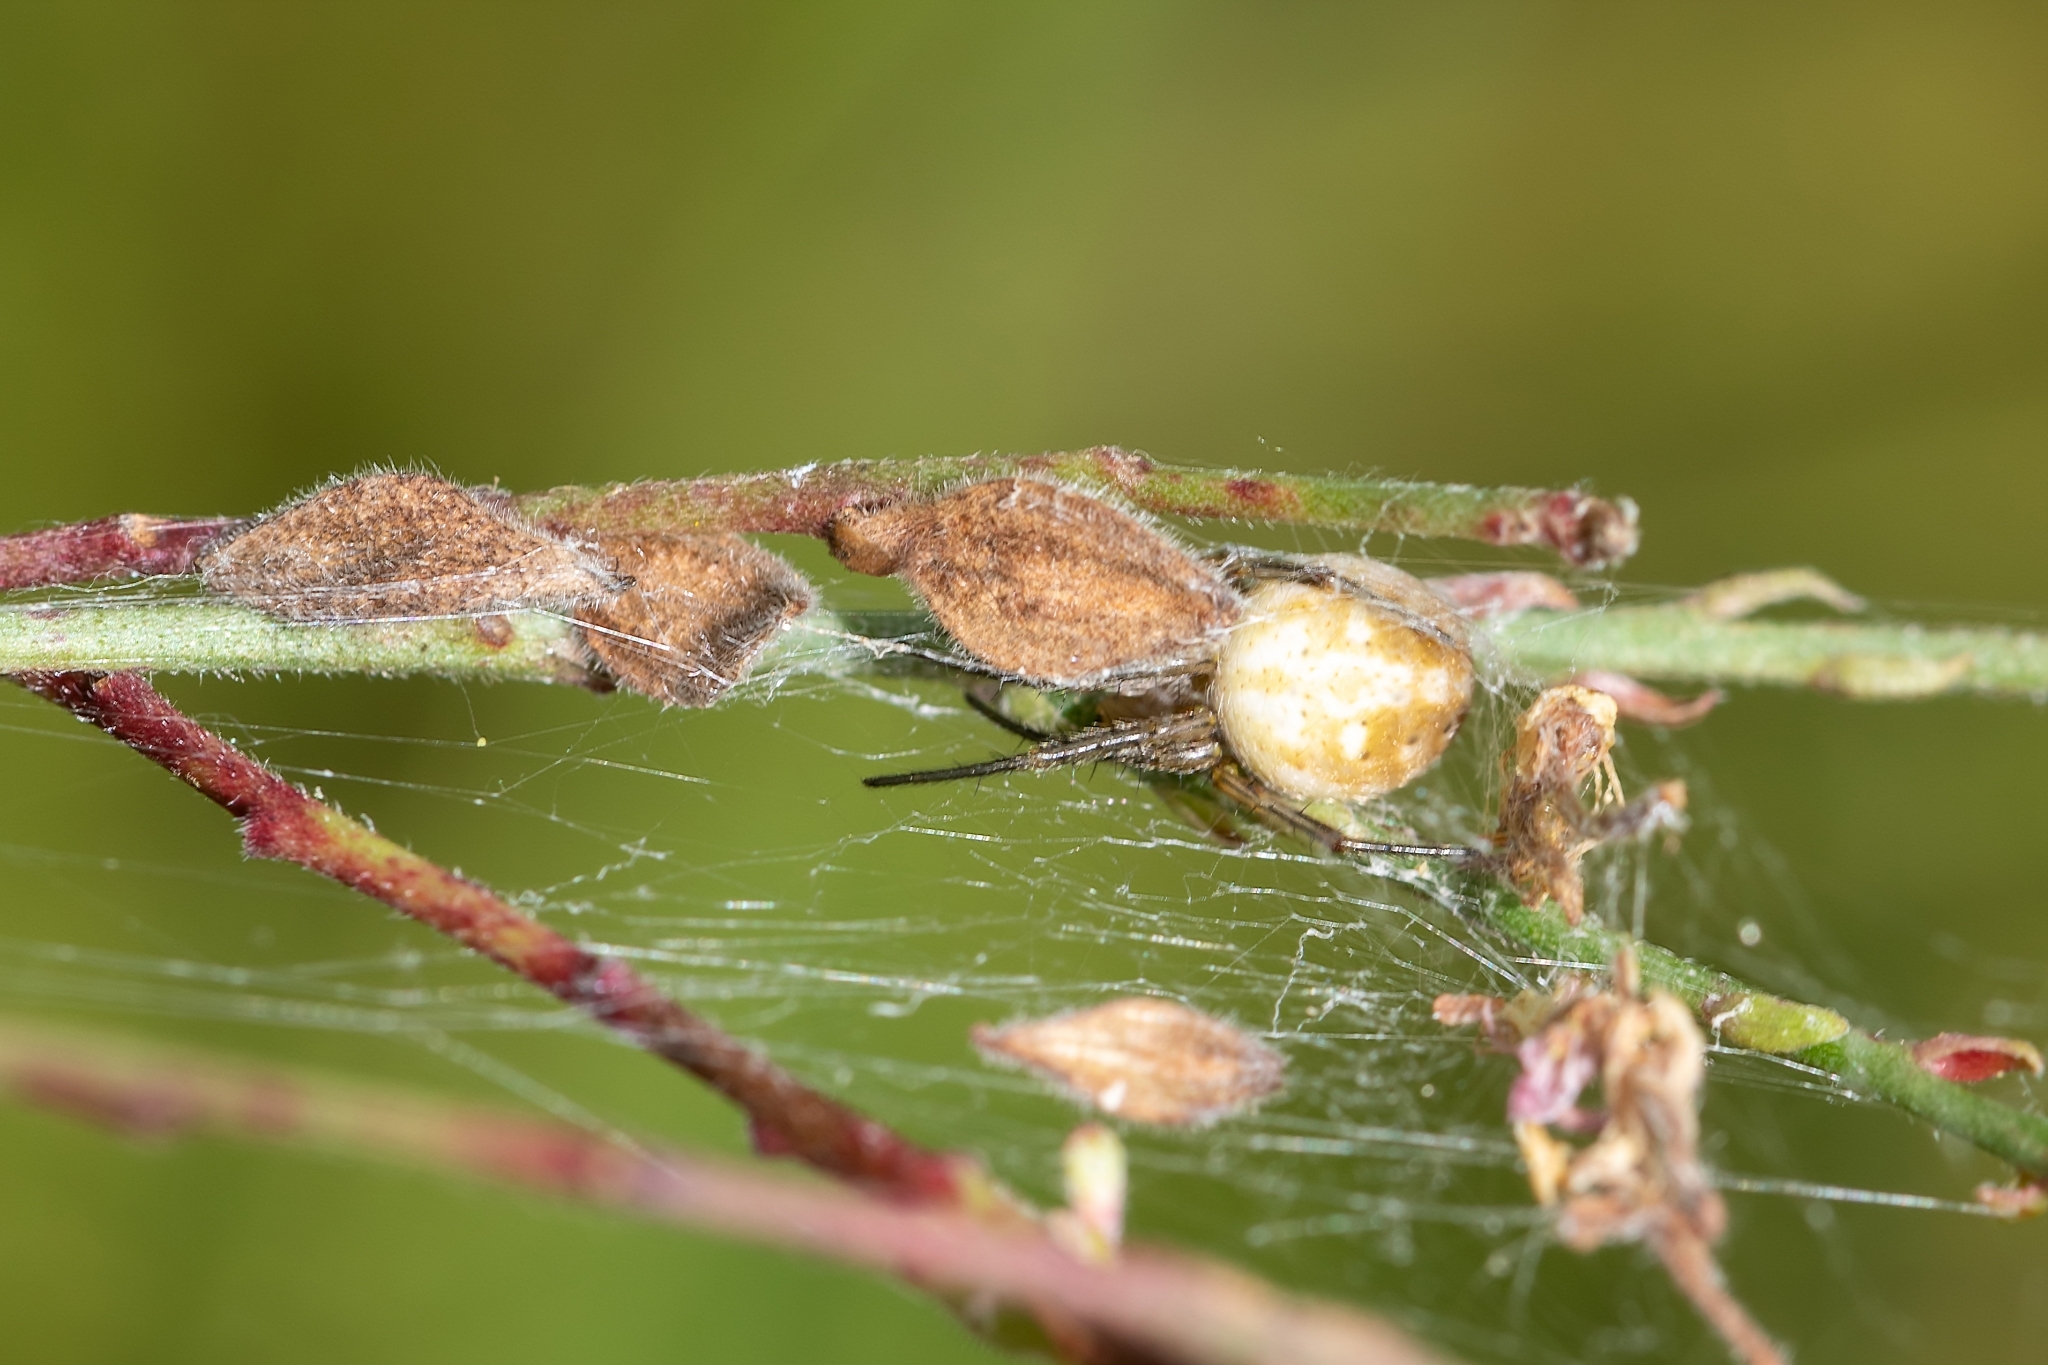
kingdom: Animalia
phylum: Arthropoda
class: Arachnida
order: Araneae
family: Araneidae
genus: Neoscona
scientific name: Neoscona arabesca
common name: Orb weavers
